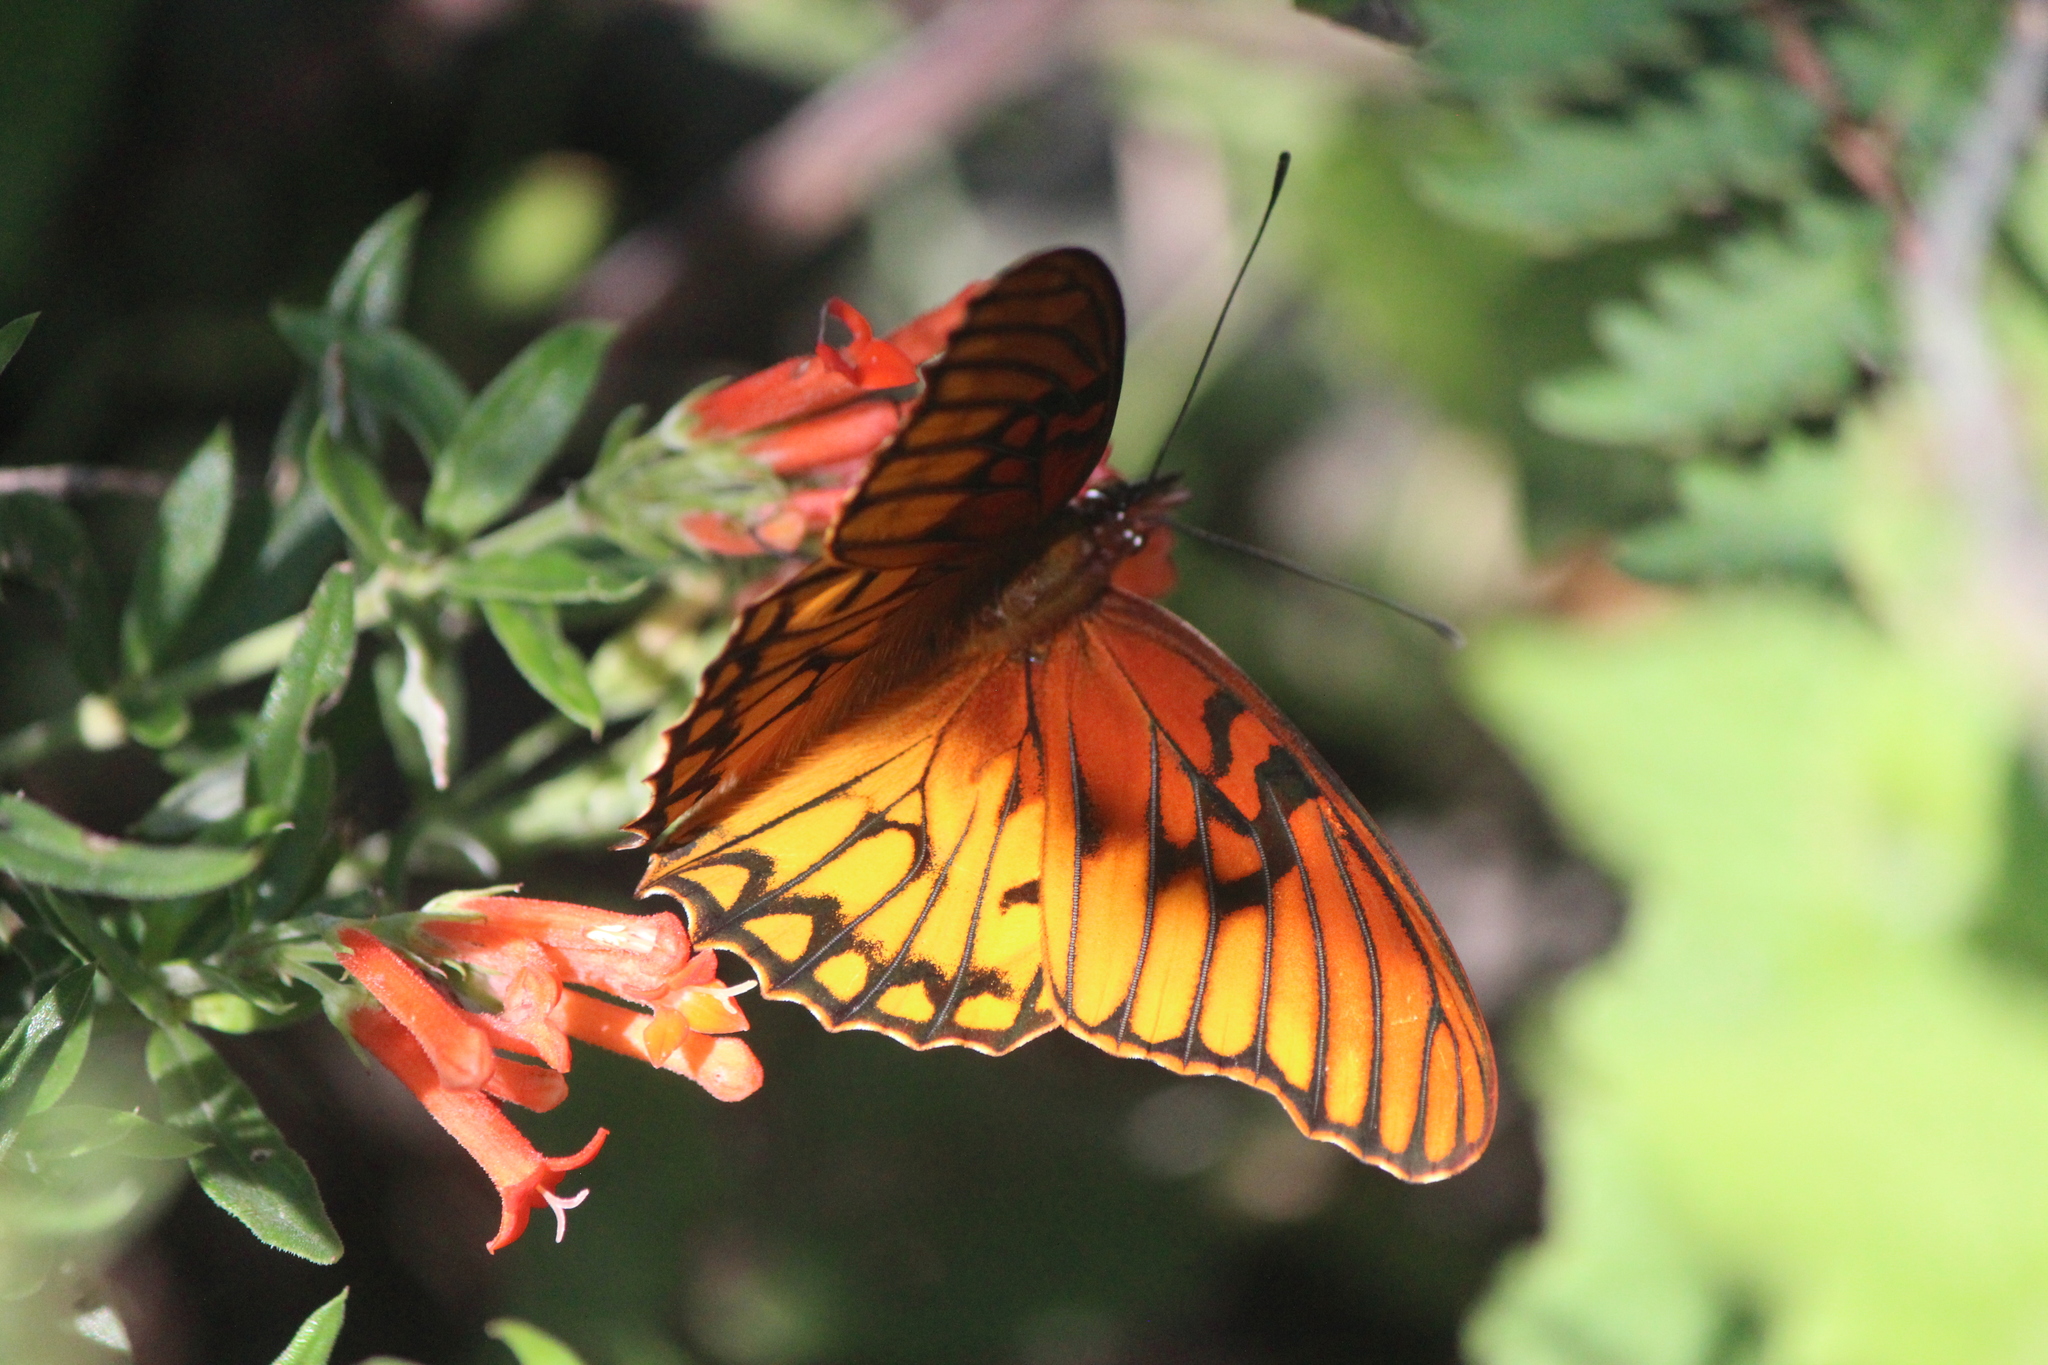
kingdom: Animalia
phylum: Arthropoda
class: Insecta
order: Lepidoptera
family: Nymphalidae
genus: Dione
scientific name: Dione moneta
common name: Mexican silverspot
